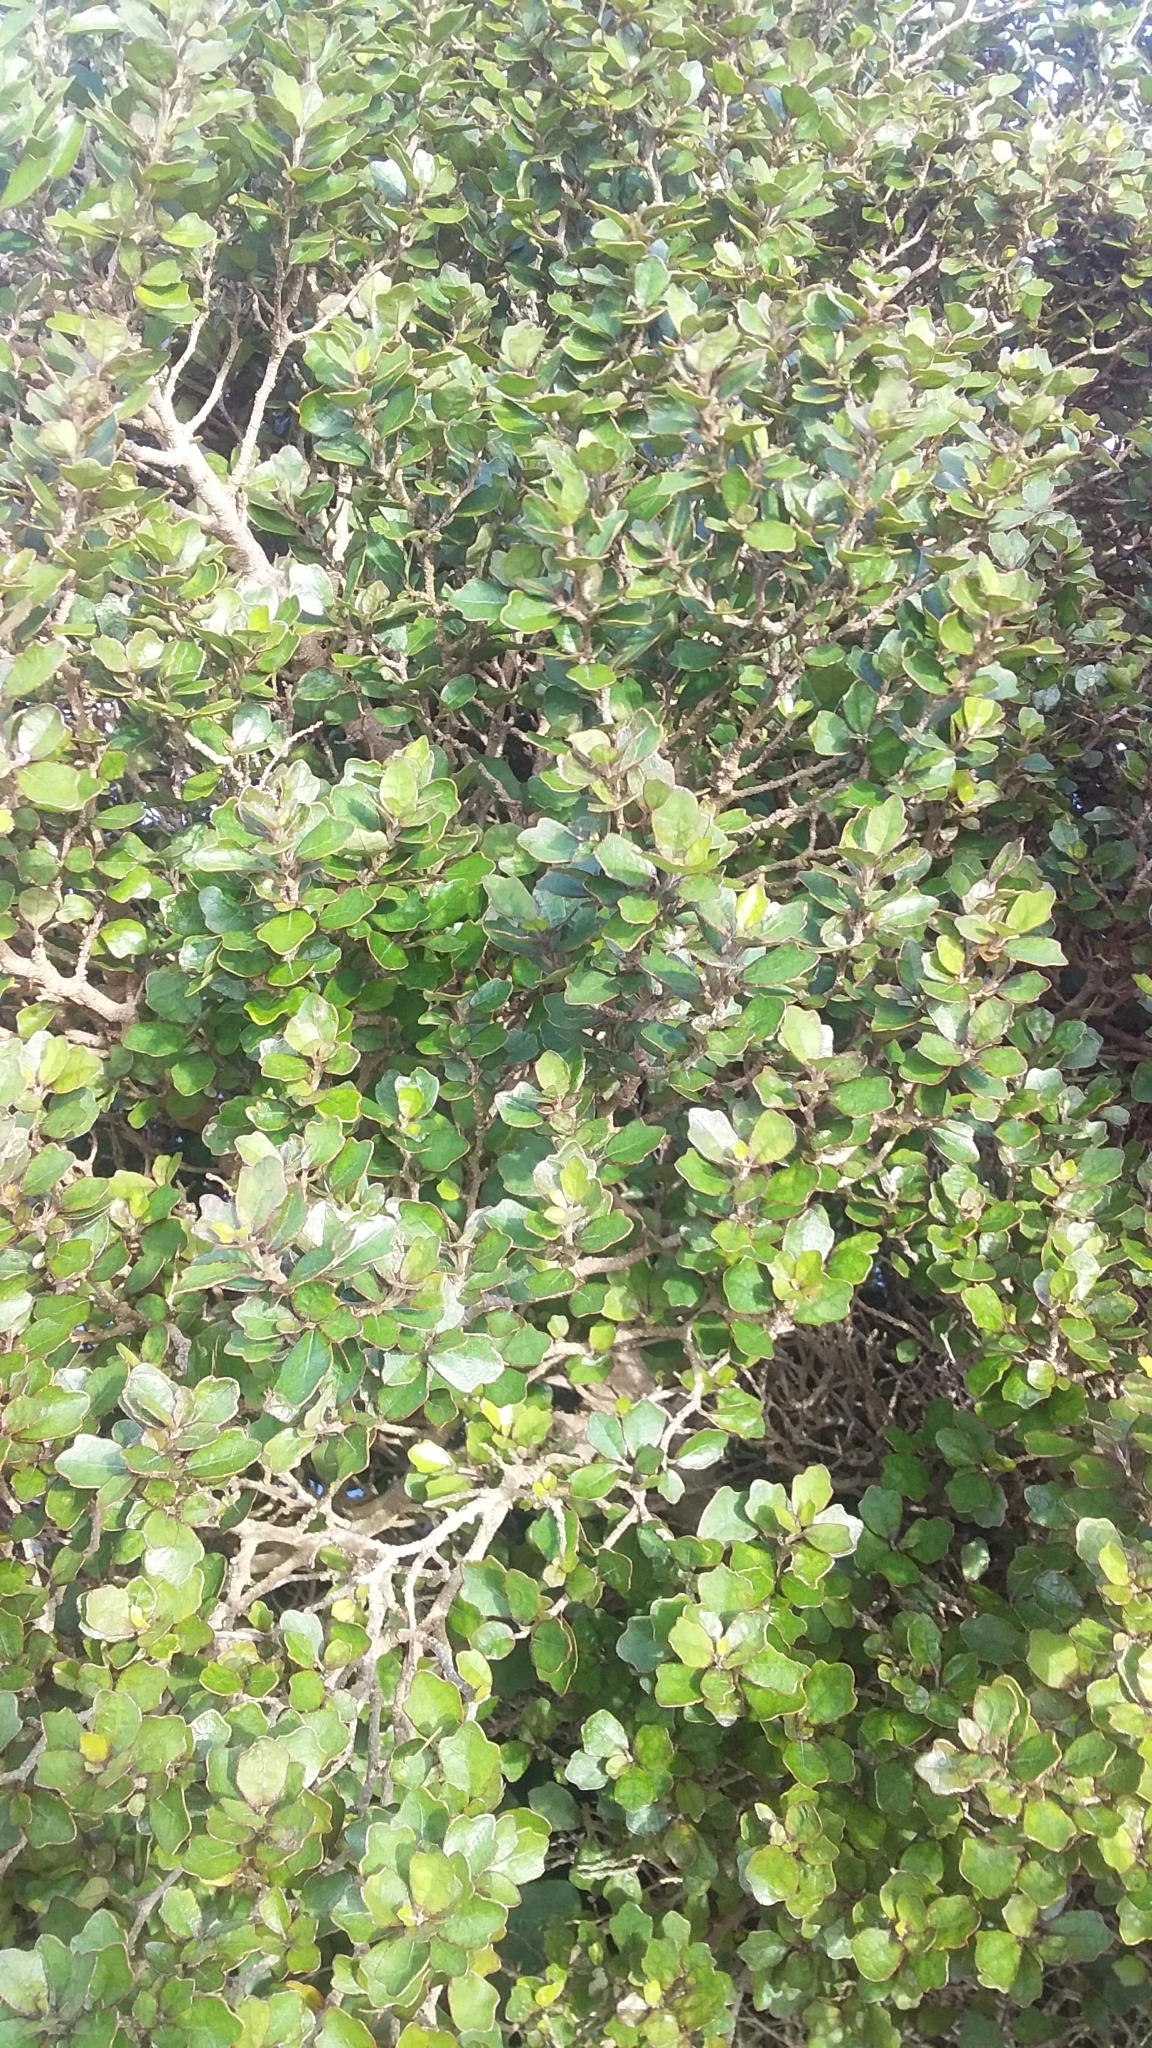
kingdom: Plantae
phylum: Tracheophyta
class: Magnoliopsida
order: Apiales
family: Pennantiaceae
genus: Pennantia
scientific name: Pennantia corymbosa
